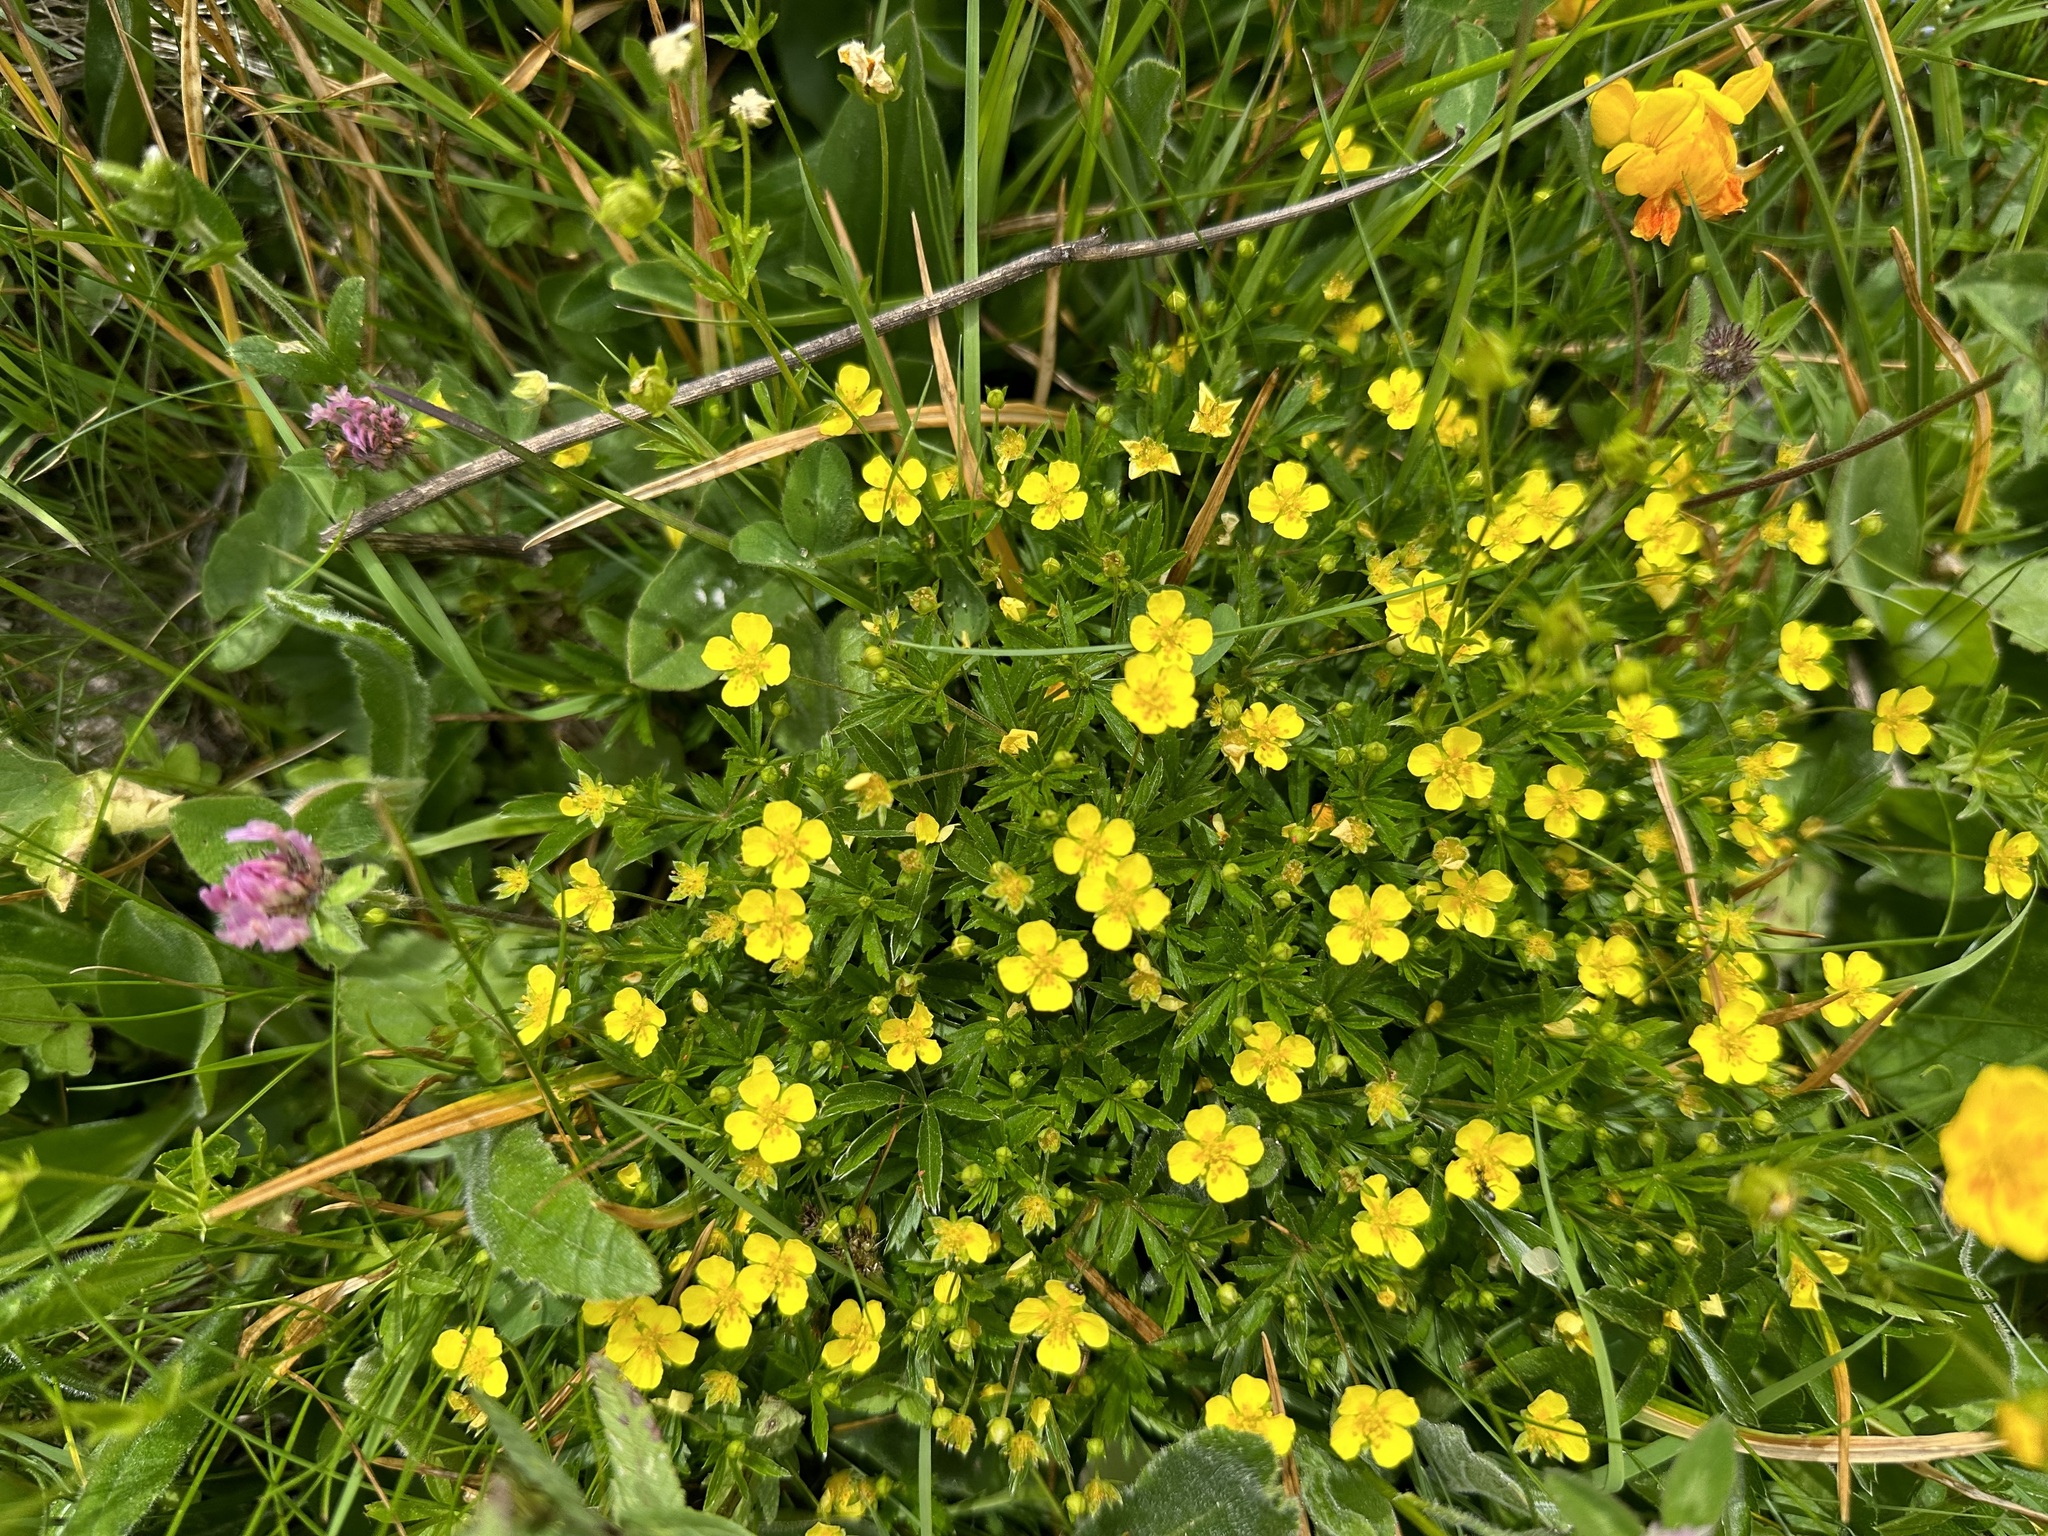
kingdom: Plantae
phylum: Tracheophyta
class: Magnoliopsida
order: Rosales
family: Rosaceae
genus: Potentilla
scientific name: Potentilla erecta
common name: Tormentil
